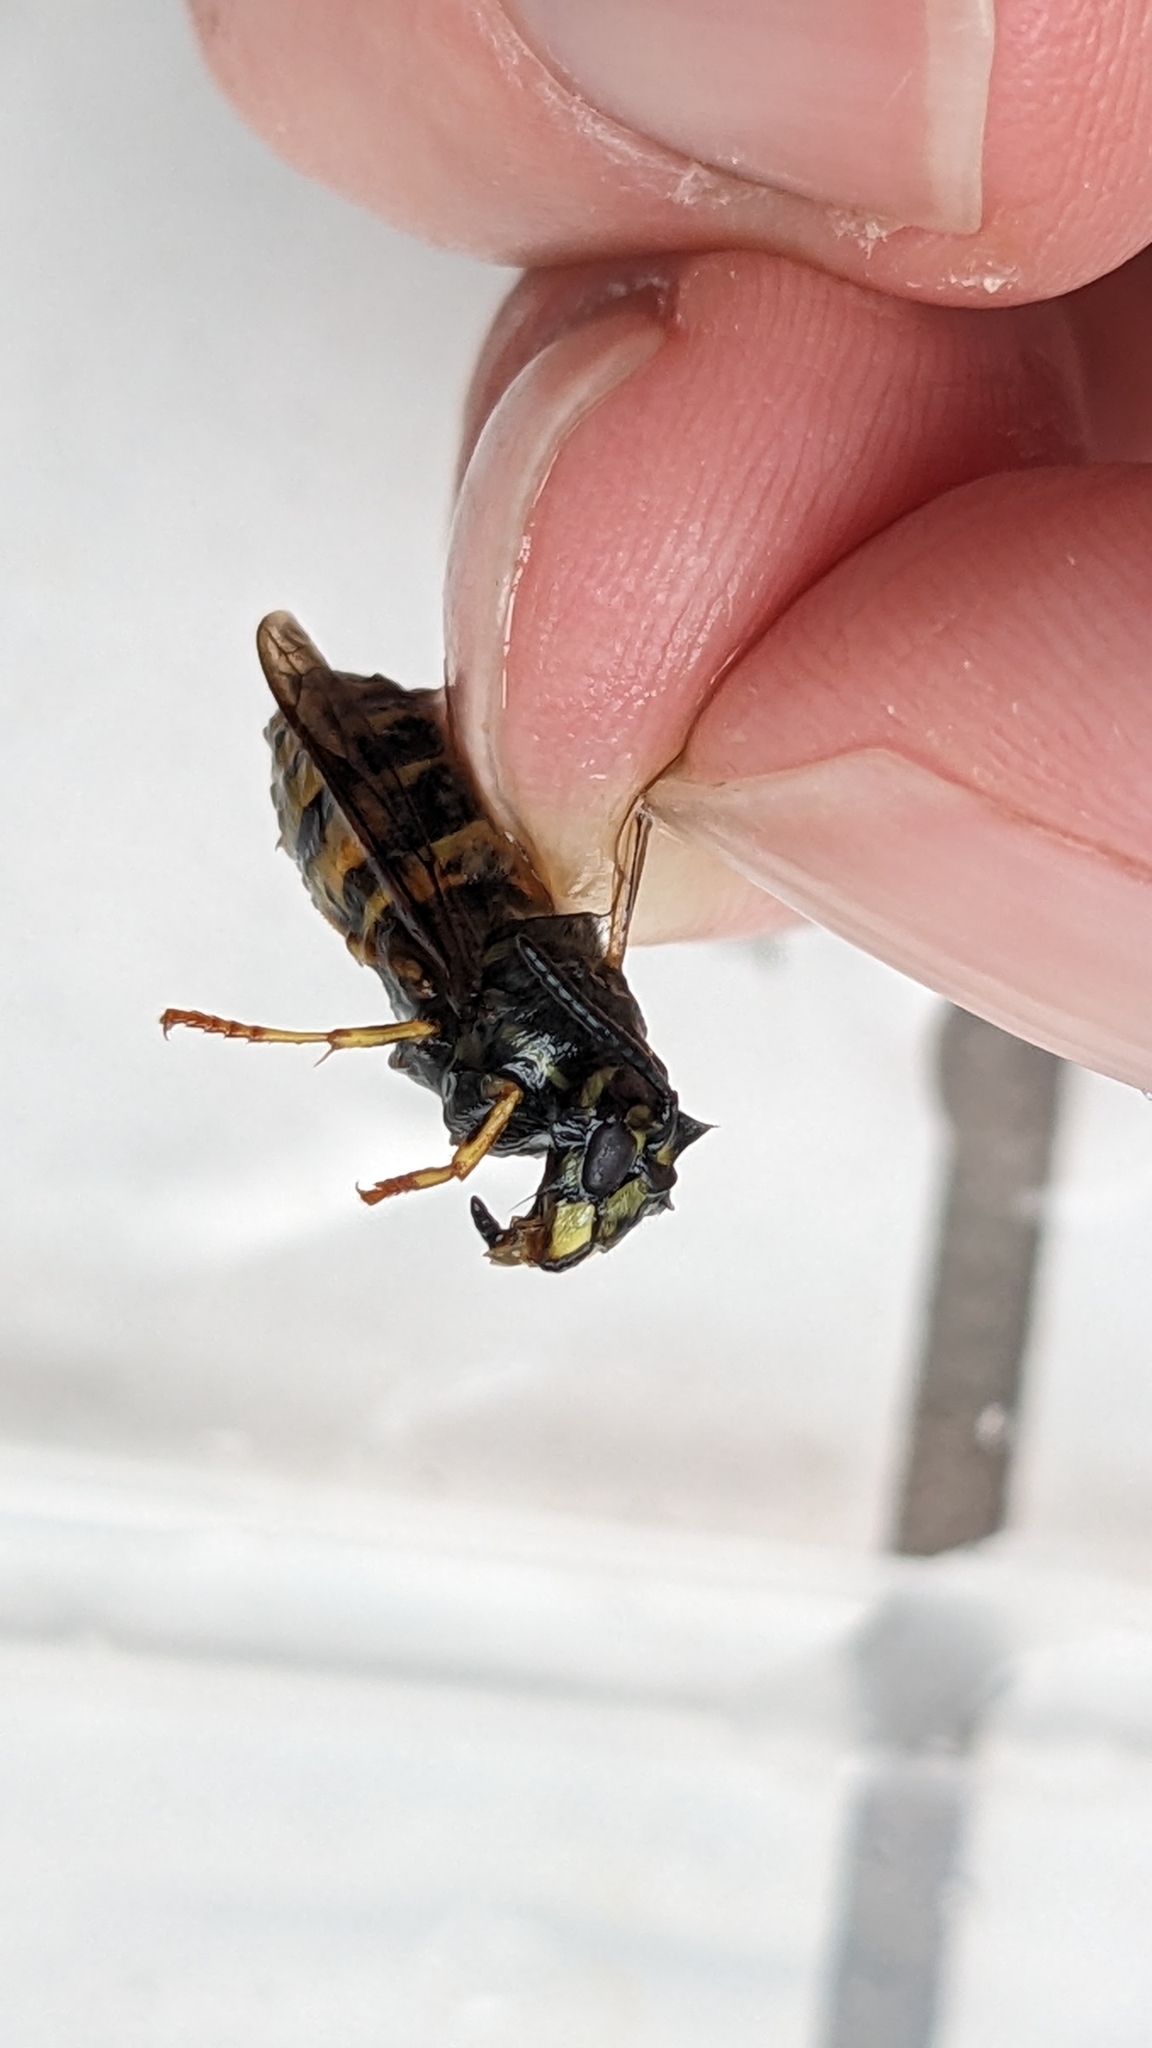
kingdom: Animalia
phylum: Arthropoda
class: Insecta
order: Hymenoptera
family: Vespidae
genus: Vespula
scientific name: Vespula vulgaris
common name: Common wasp
